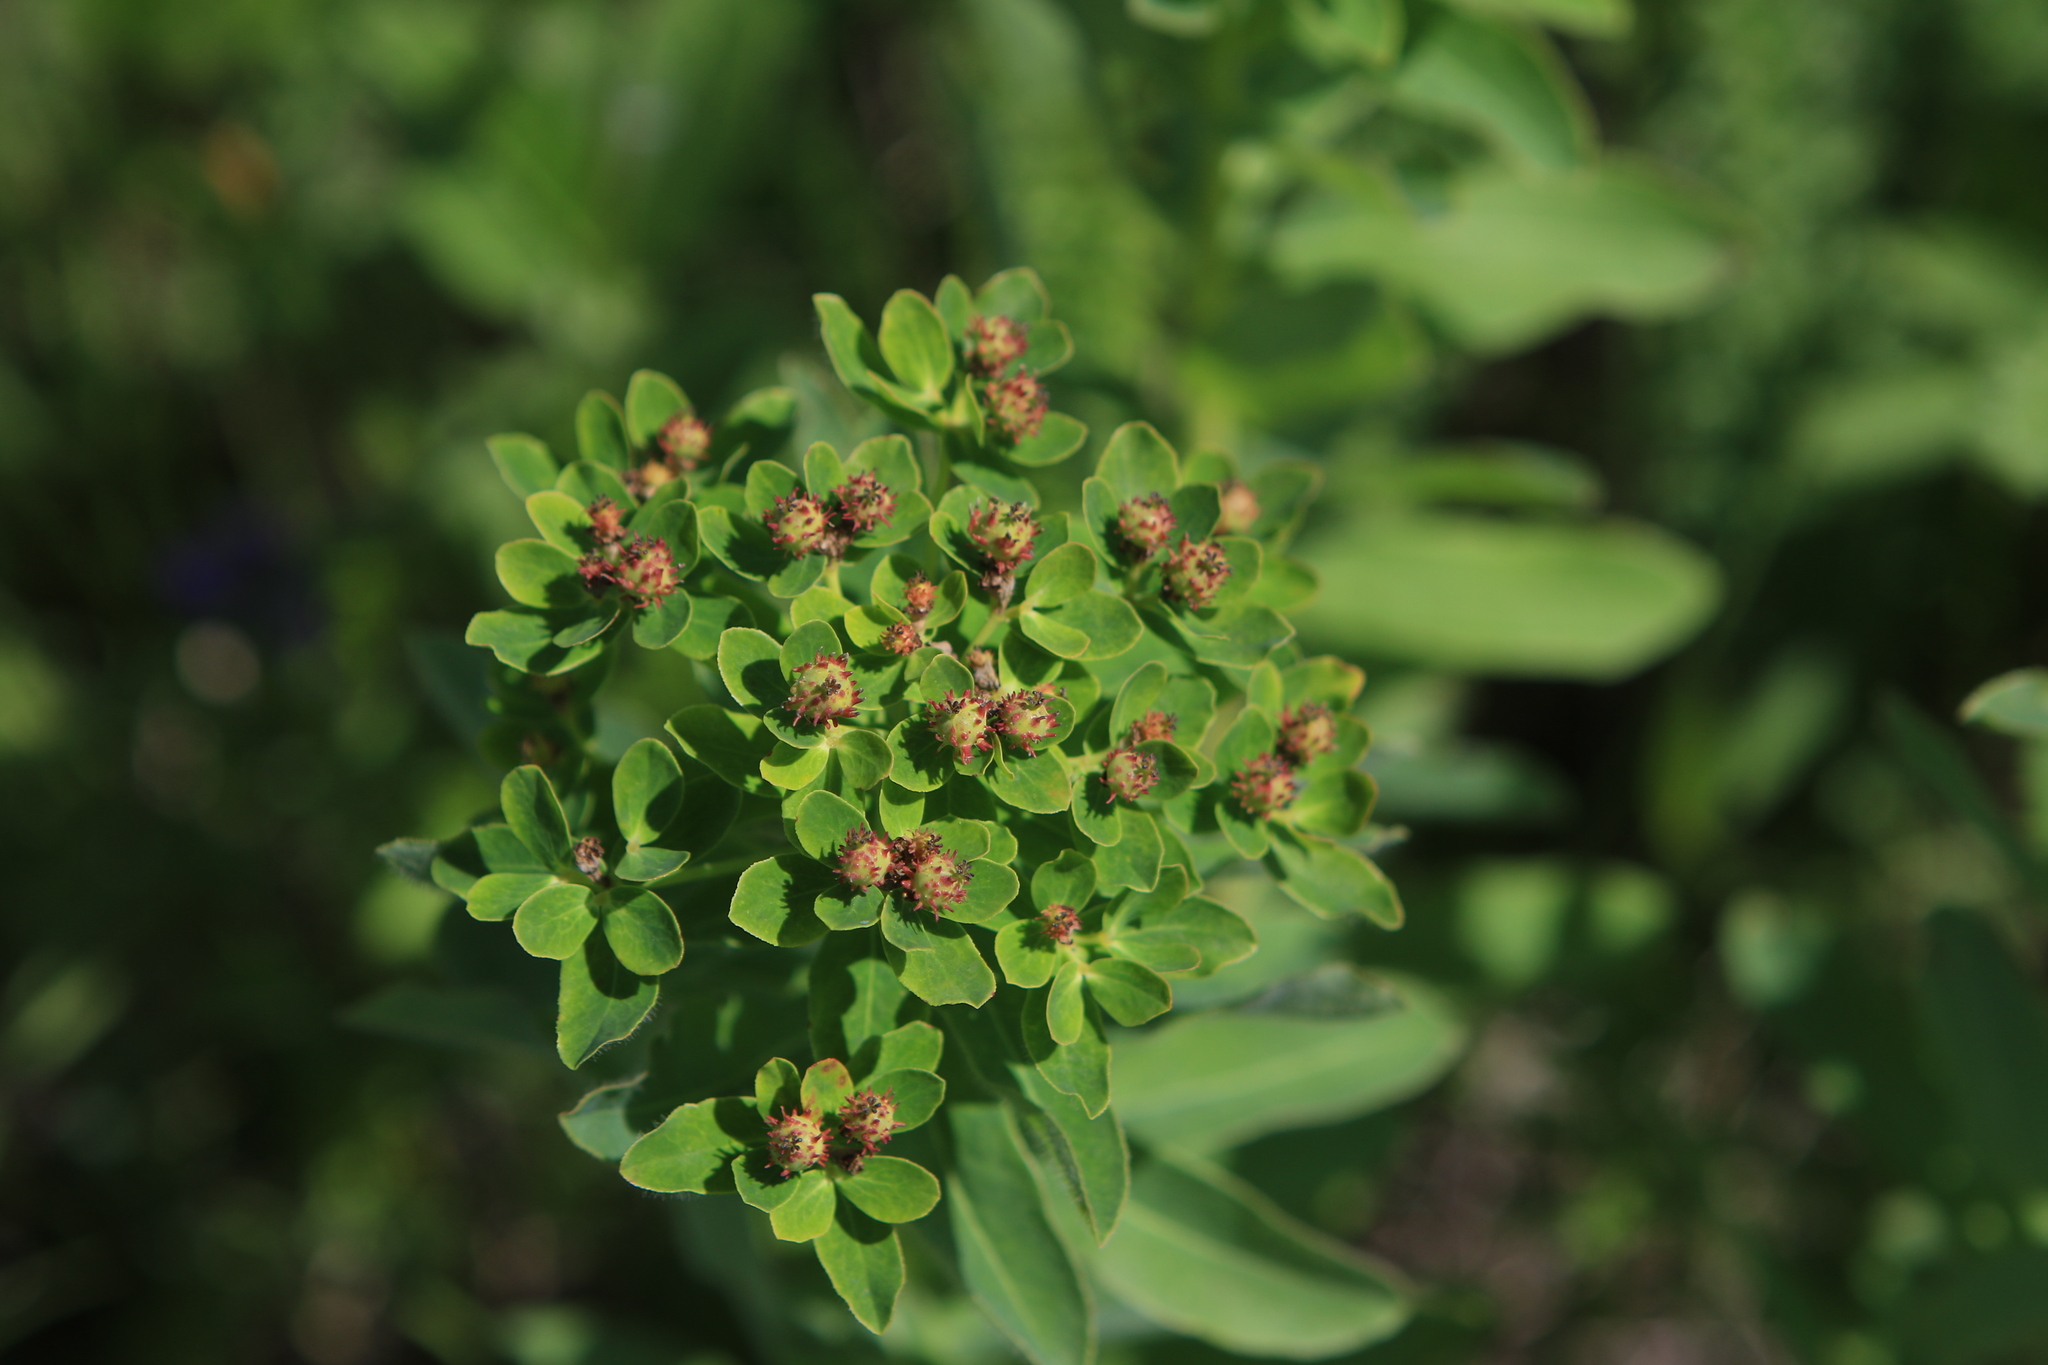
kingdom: Plantae
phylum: Tracheophyta
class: Magnoliopsida
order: Malpighiales
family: Euphorbiaceae
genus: Euphorbia
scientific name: Euphorbia pilosa
